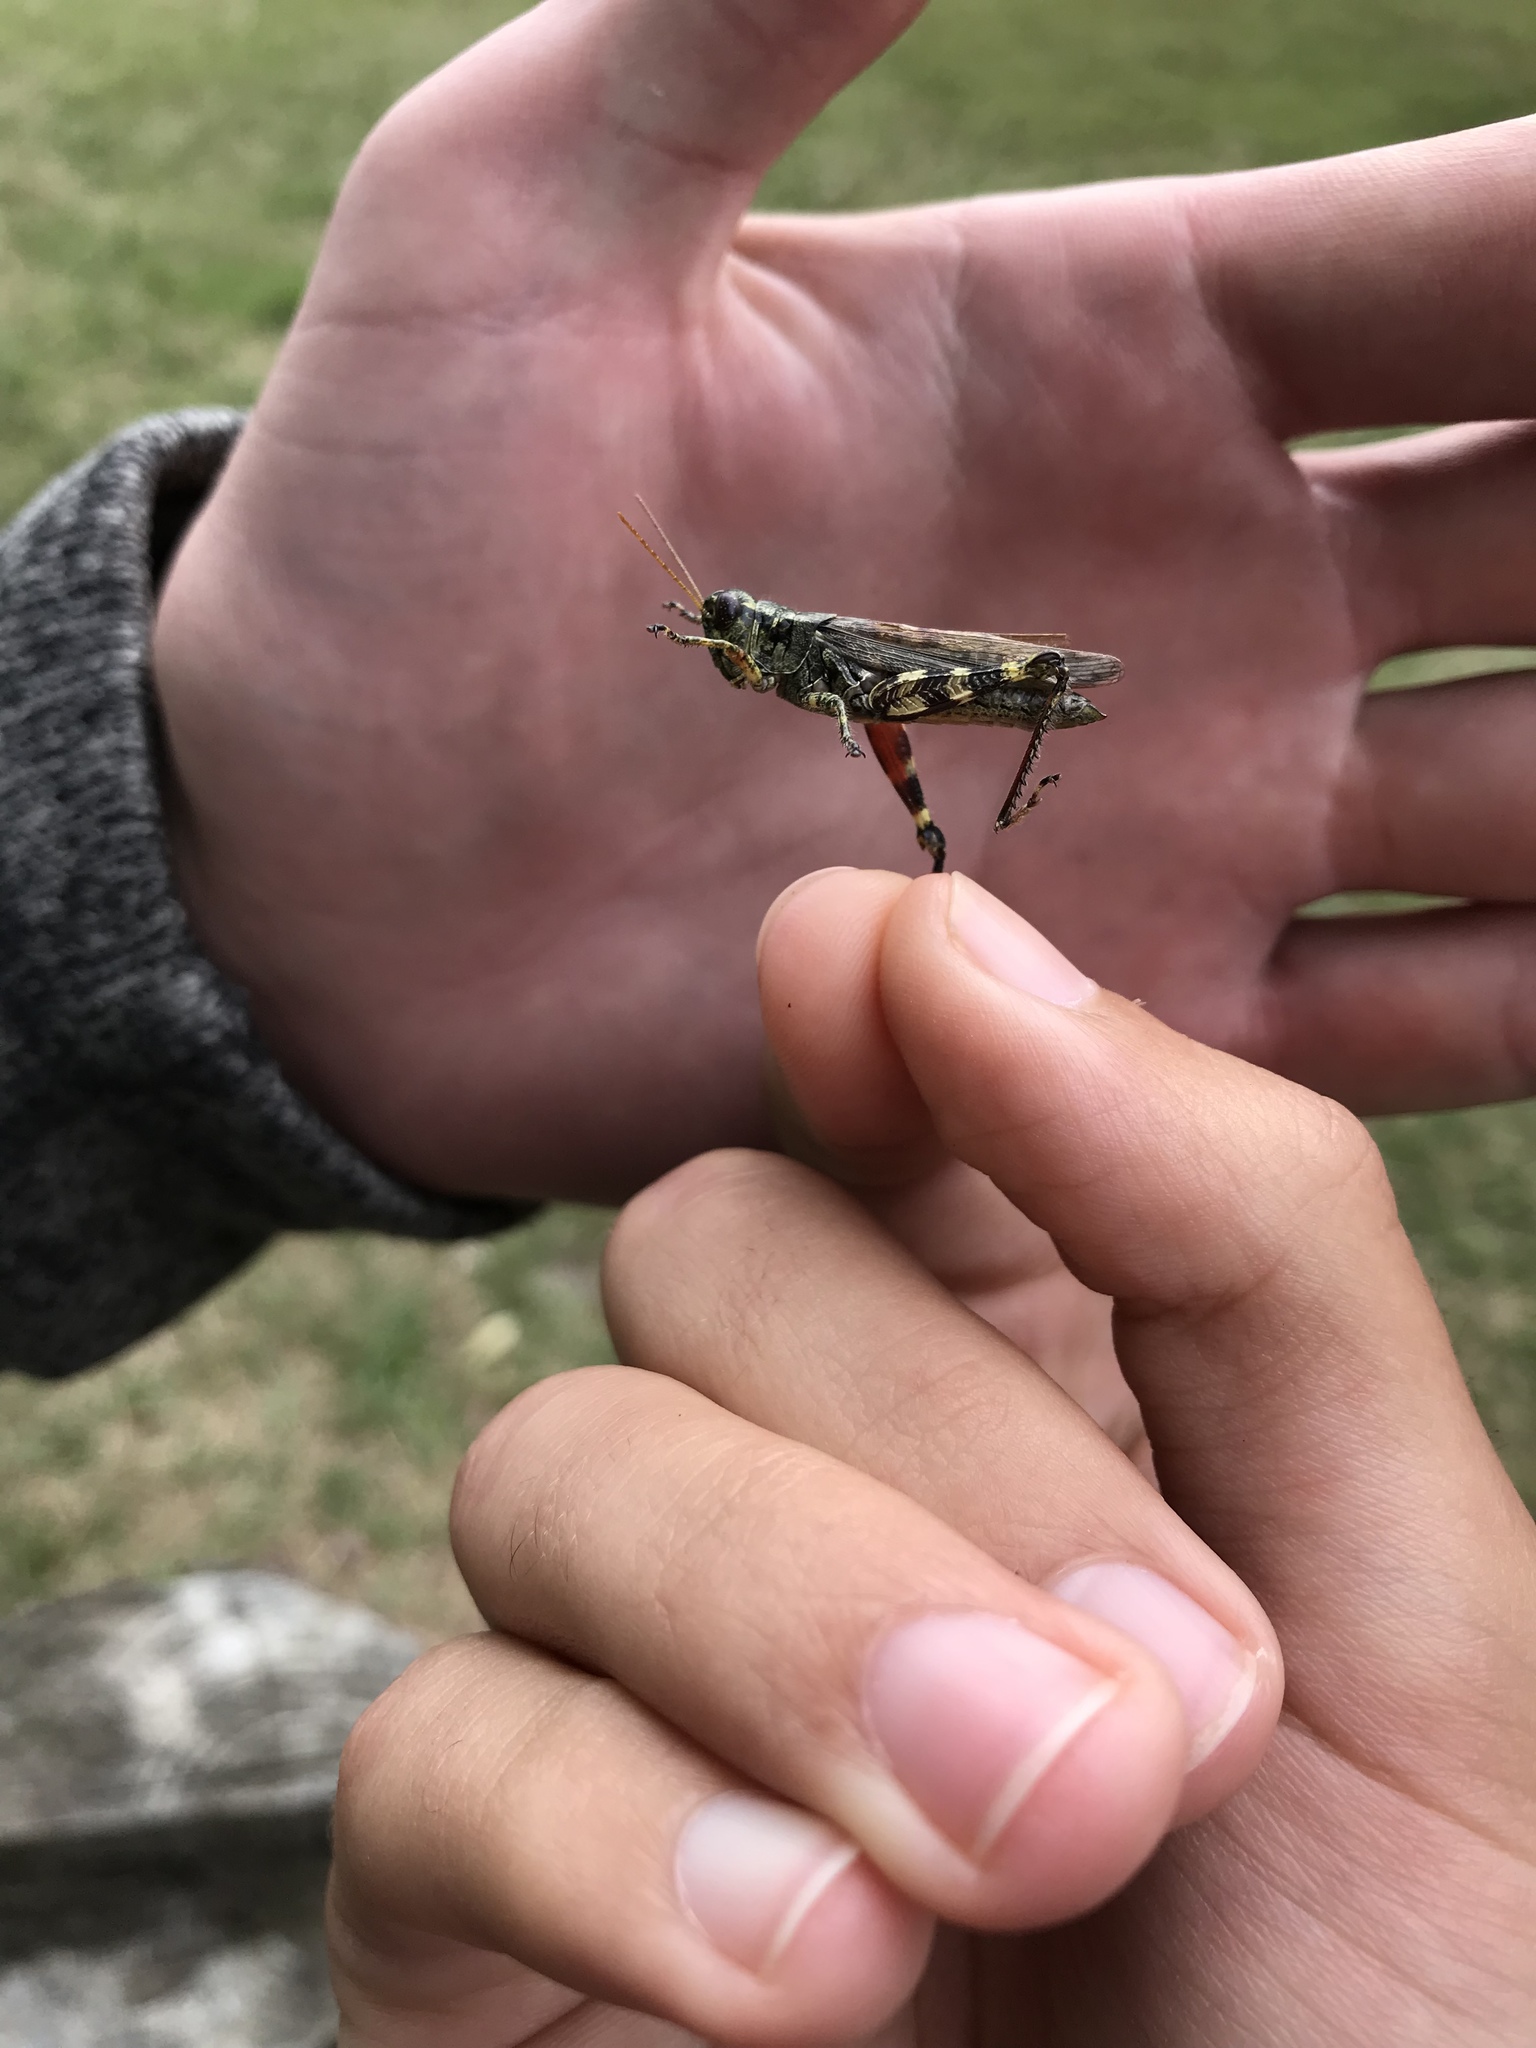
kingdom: Animalia
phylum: Arthropoda
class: Insecta
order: Orthoptera
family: Acrididae
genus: Melanoplus
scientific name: Melanoplus punctulatus
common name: Pine-tree spur-throat grasshopper
